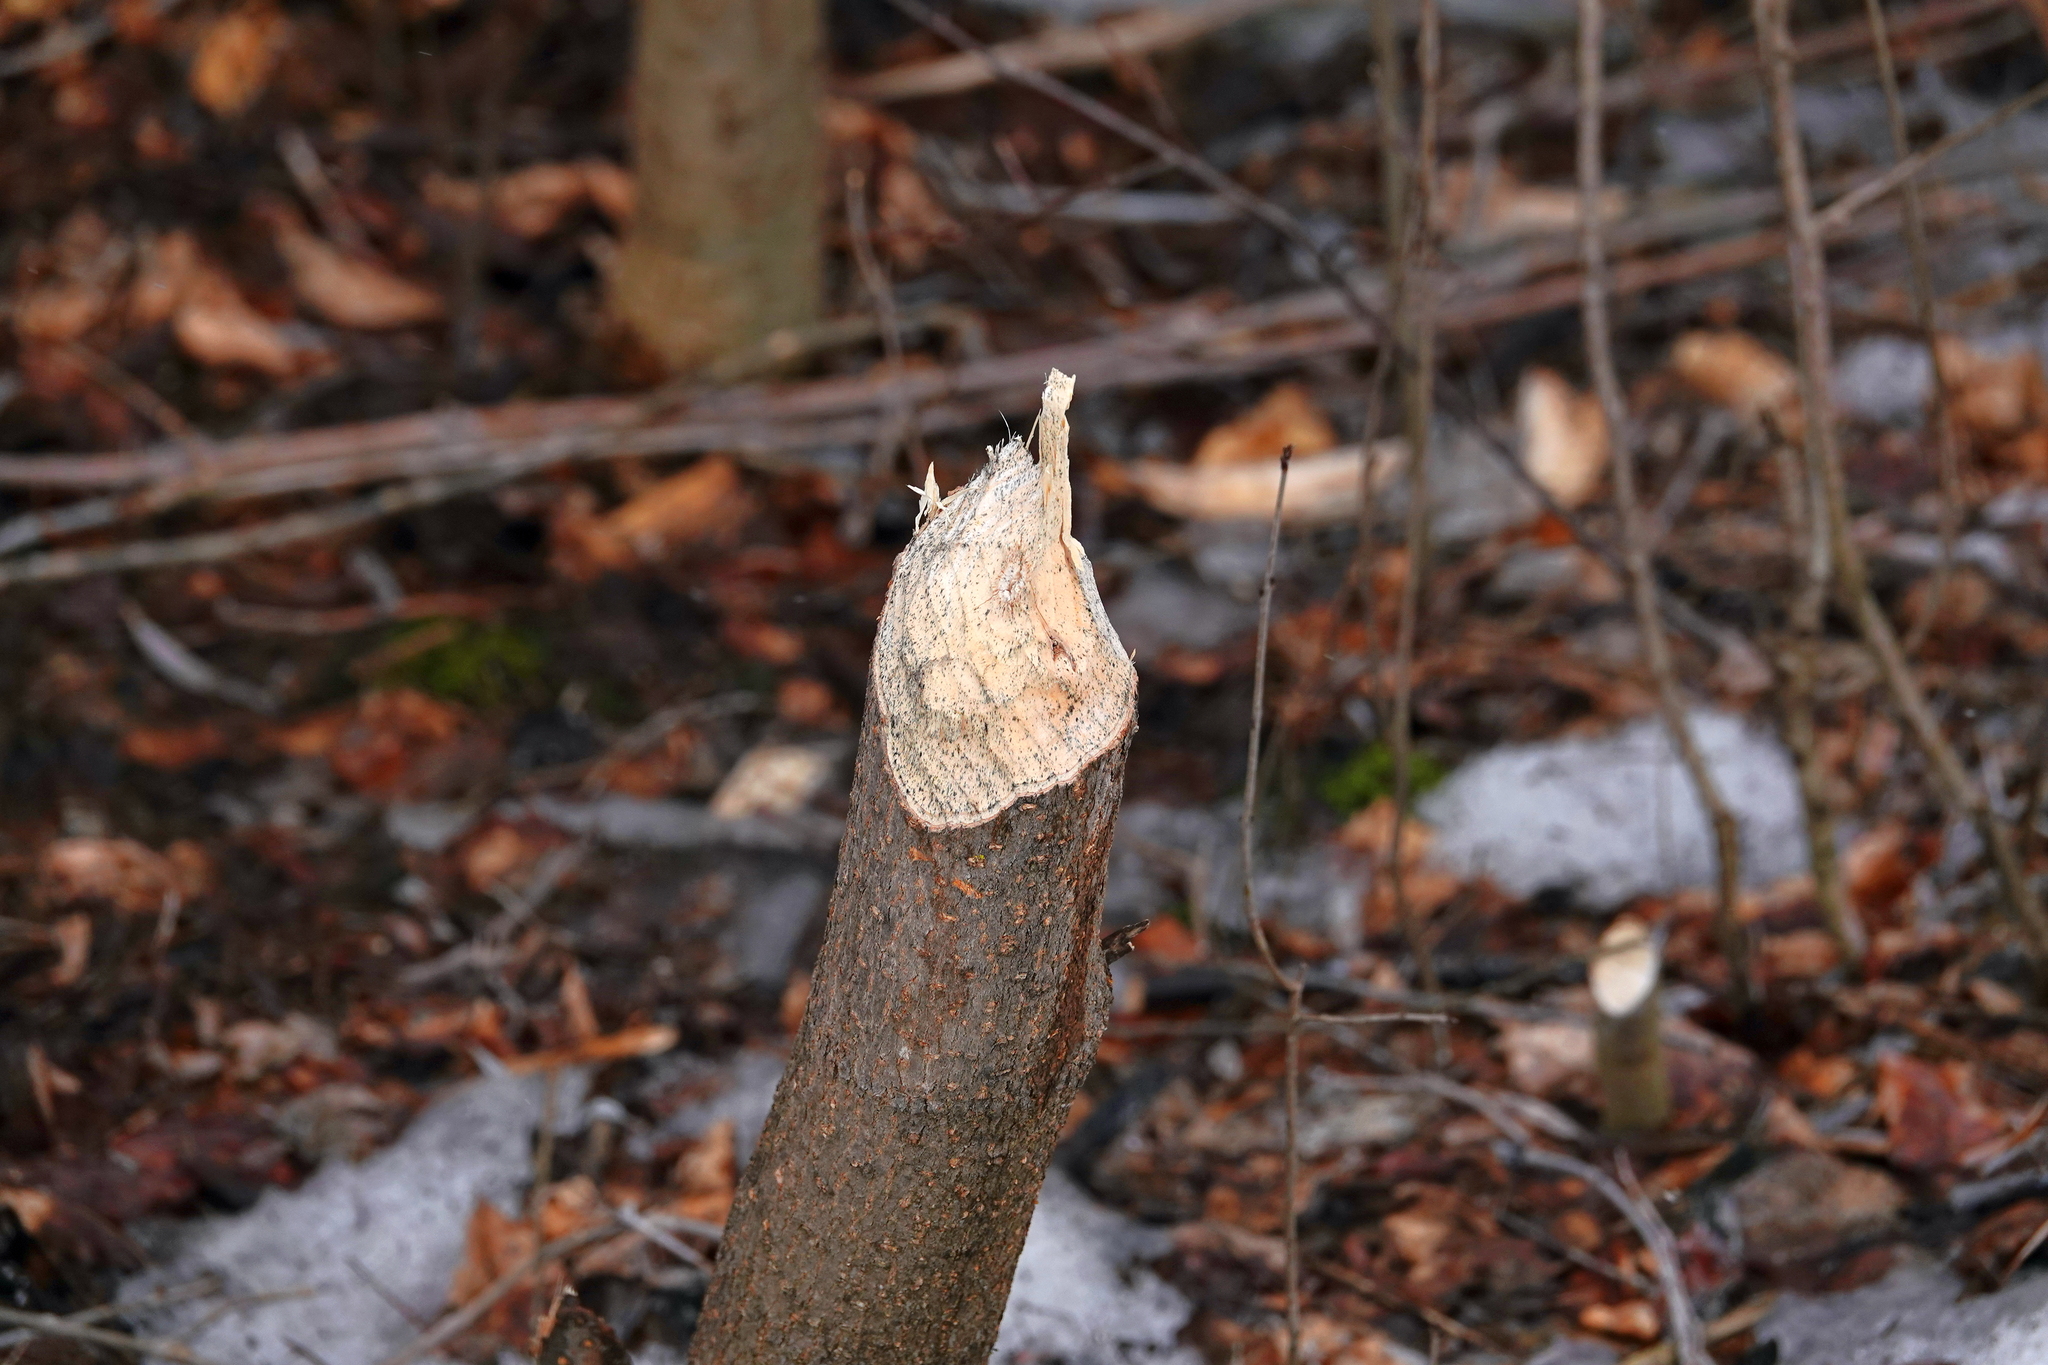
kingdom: Animalia
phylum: Chordata
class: Mammalia
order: Rodentia
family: Castoridae
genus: Castor
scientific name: Castor canadensis
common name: American beaver
